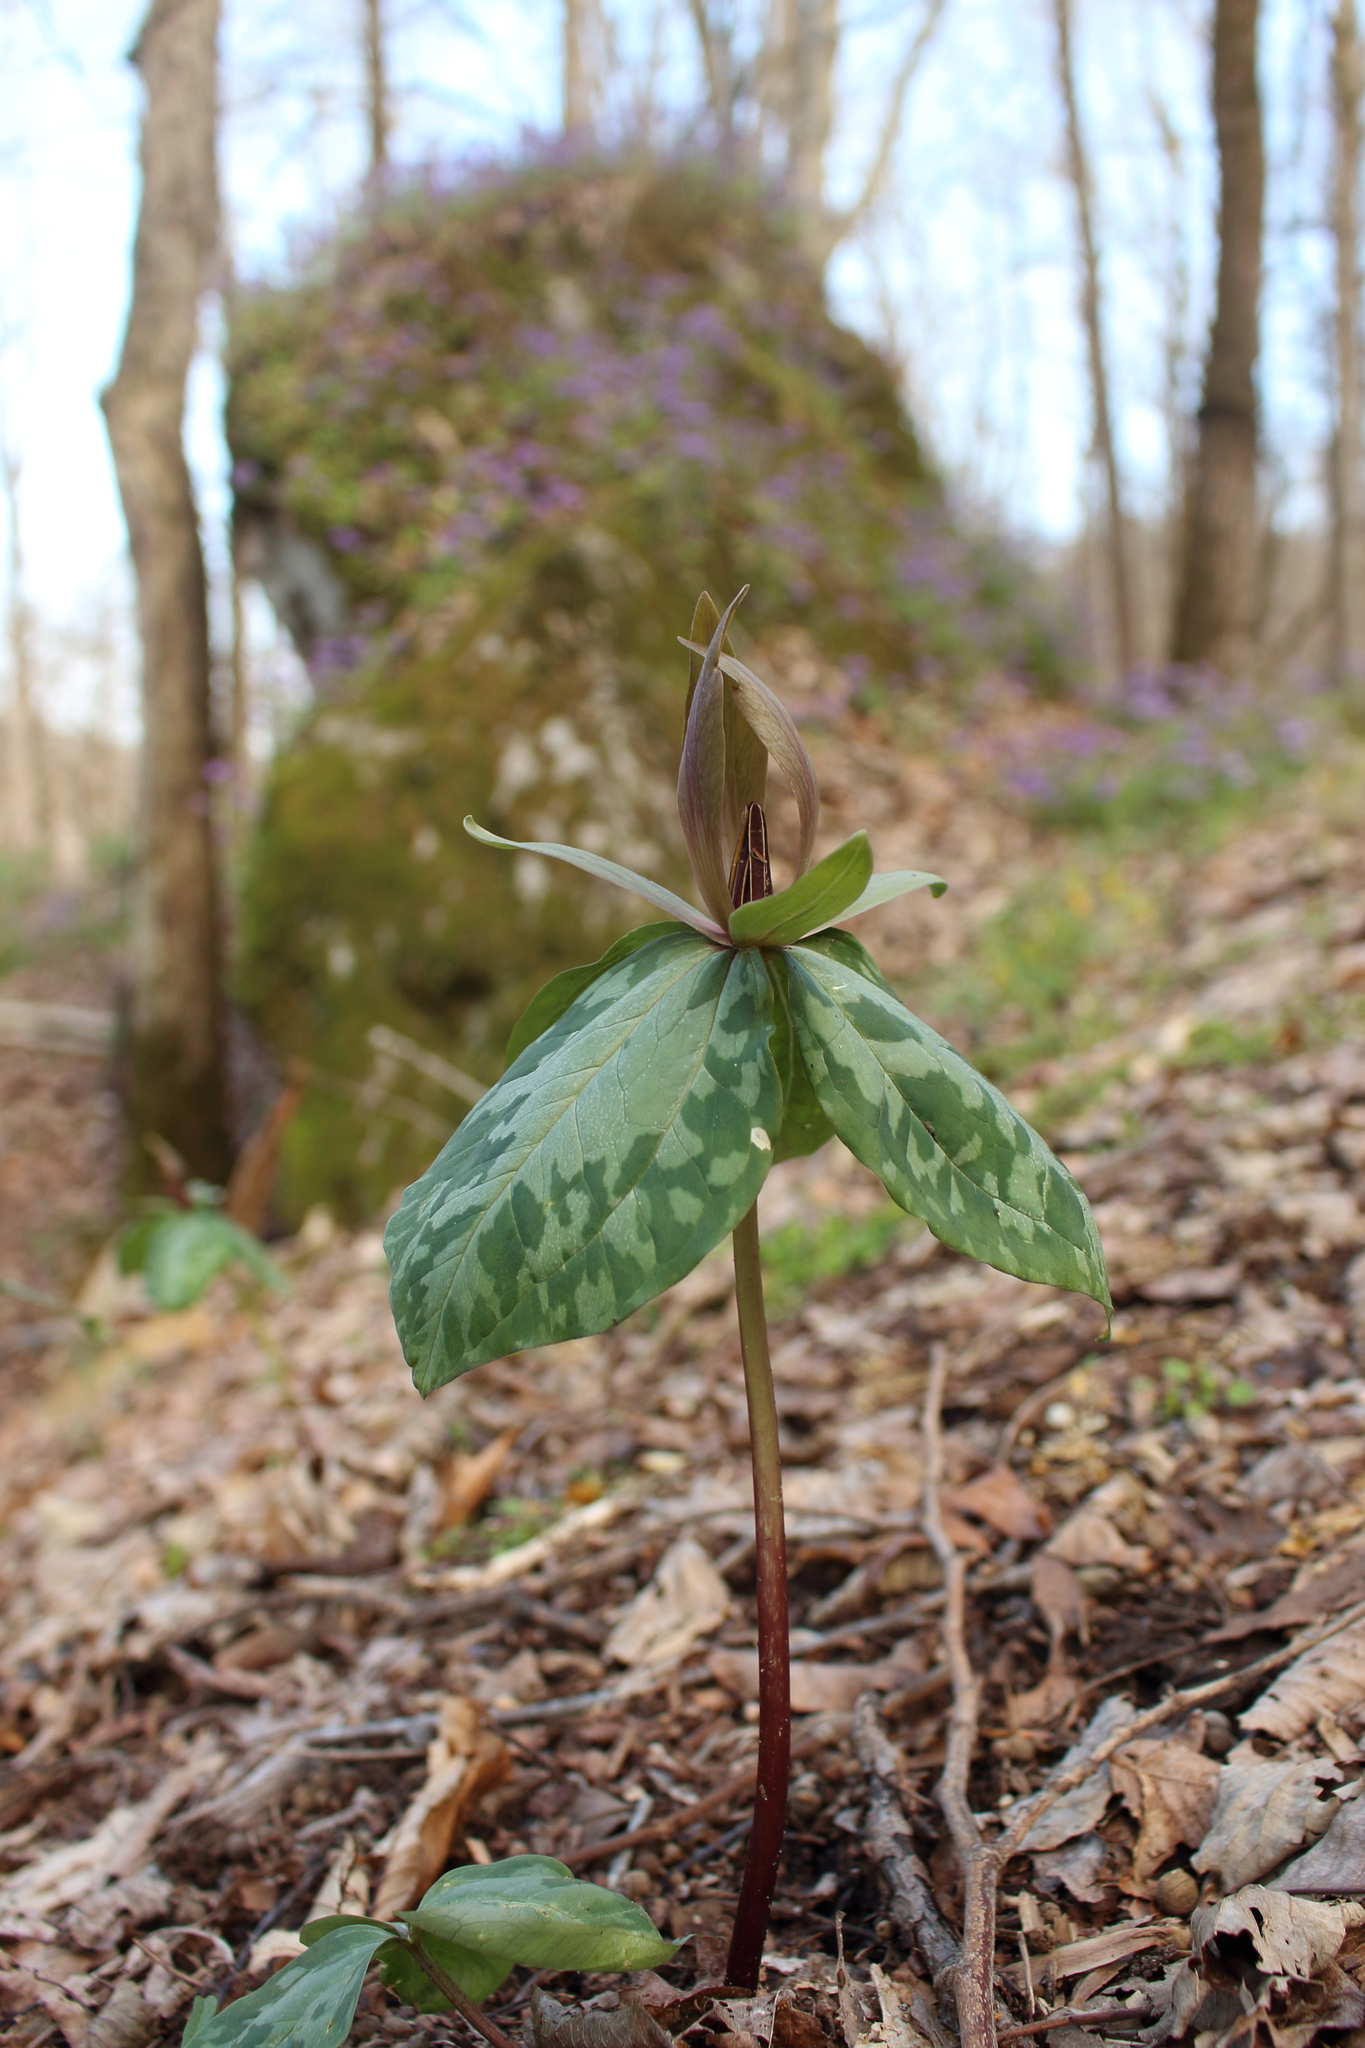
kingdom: Plantae
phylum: Tracheophyta
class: Liliopsida
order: Liliales
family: Melanthiaceae
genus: Trillium
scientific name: Trillium cuneatum
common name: Cuneate trillium
